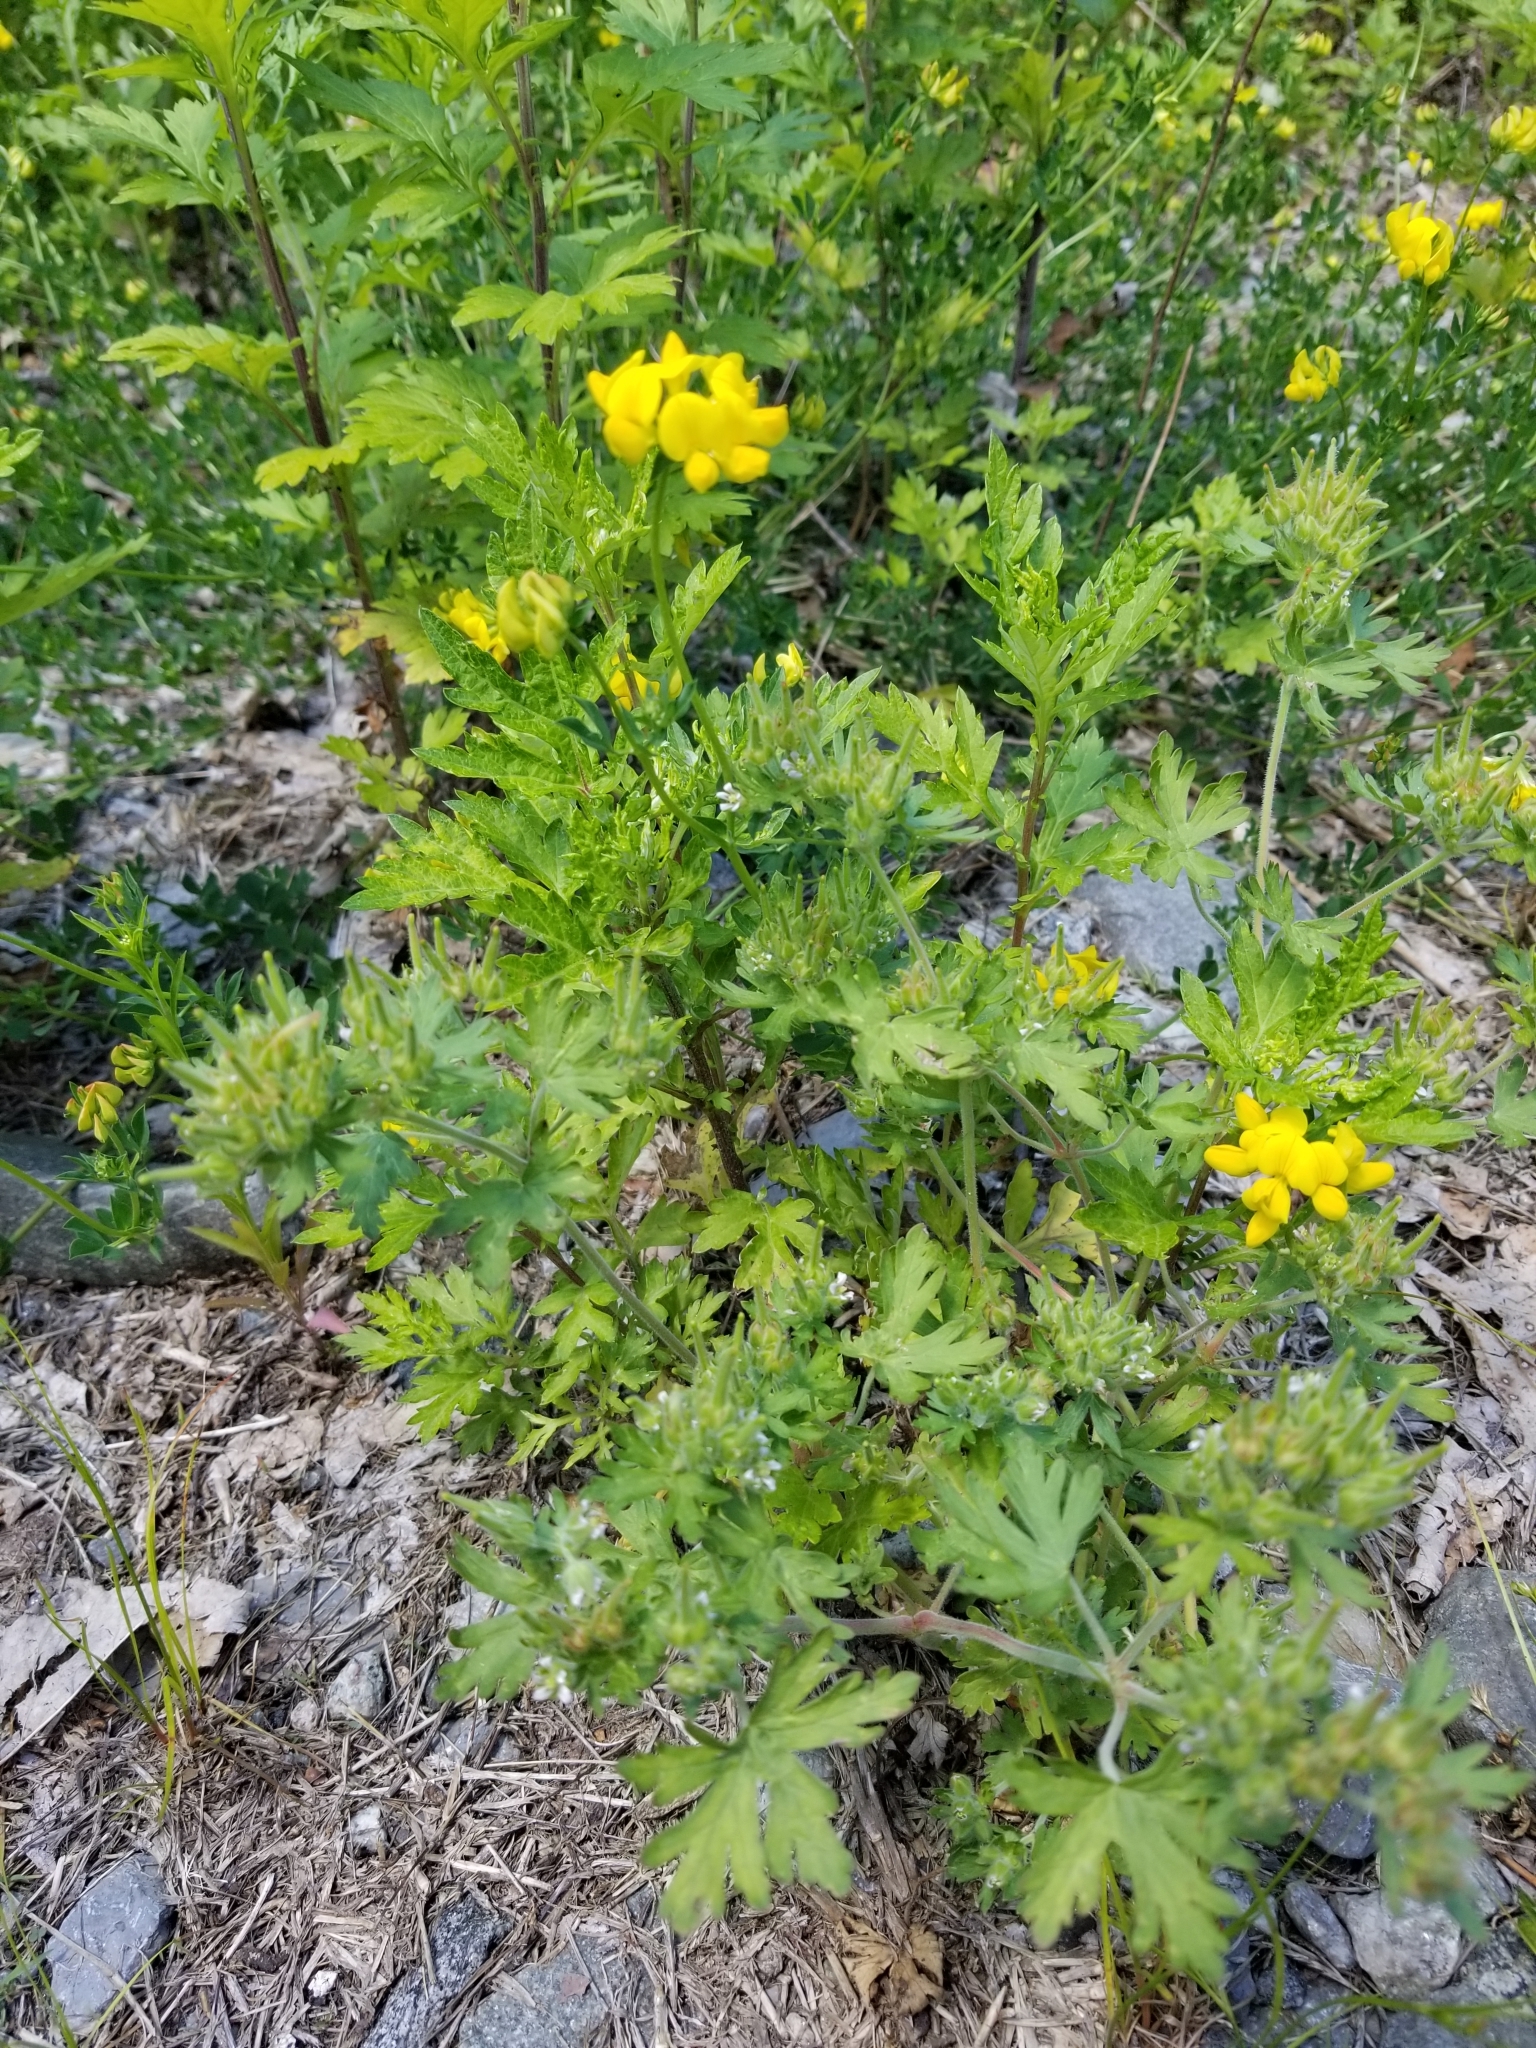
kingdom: Plantae
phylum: Tracheophyta
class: Magnoliopsida
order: Fabales
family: Fabaceae
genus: Lotus
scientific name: Lotus corniculatus
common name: Common bird's-foot-trefoil
